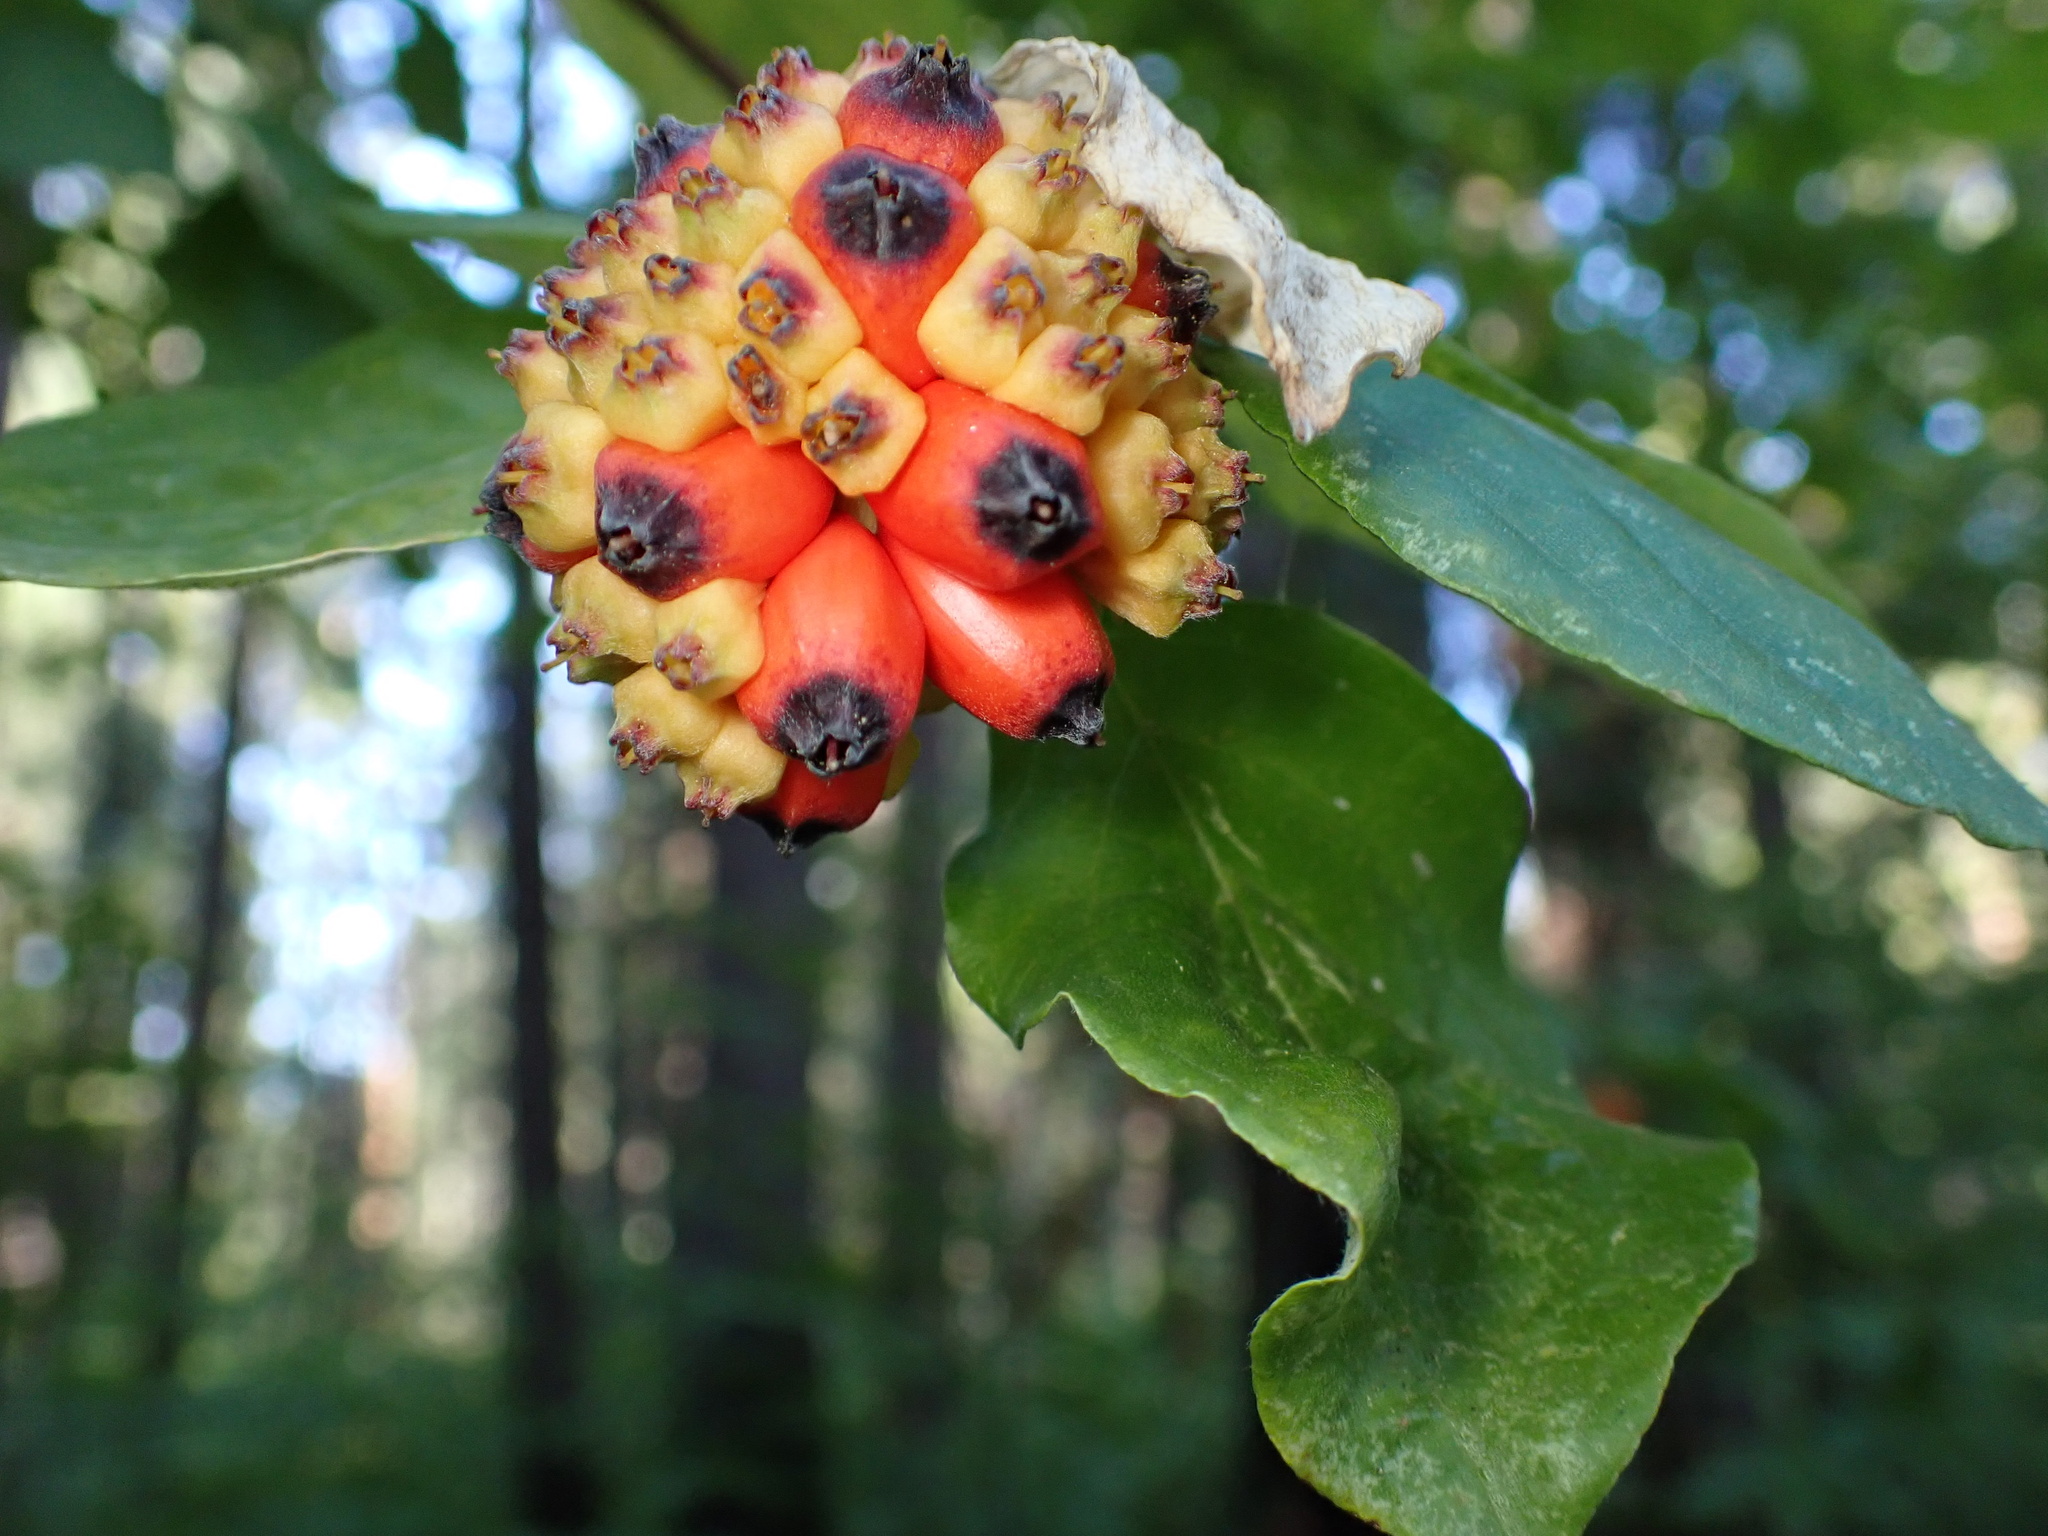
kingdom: Plantae
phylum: Tracheophyta
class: Magnoliopsida
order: Cornales
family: Cornaceae
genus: Cornus
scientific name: Cornus nuttallii
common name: Pacific dogwood
